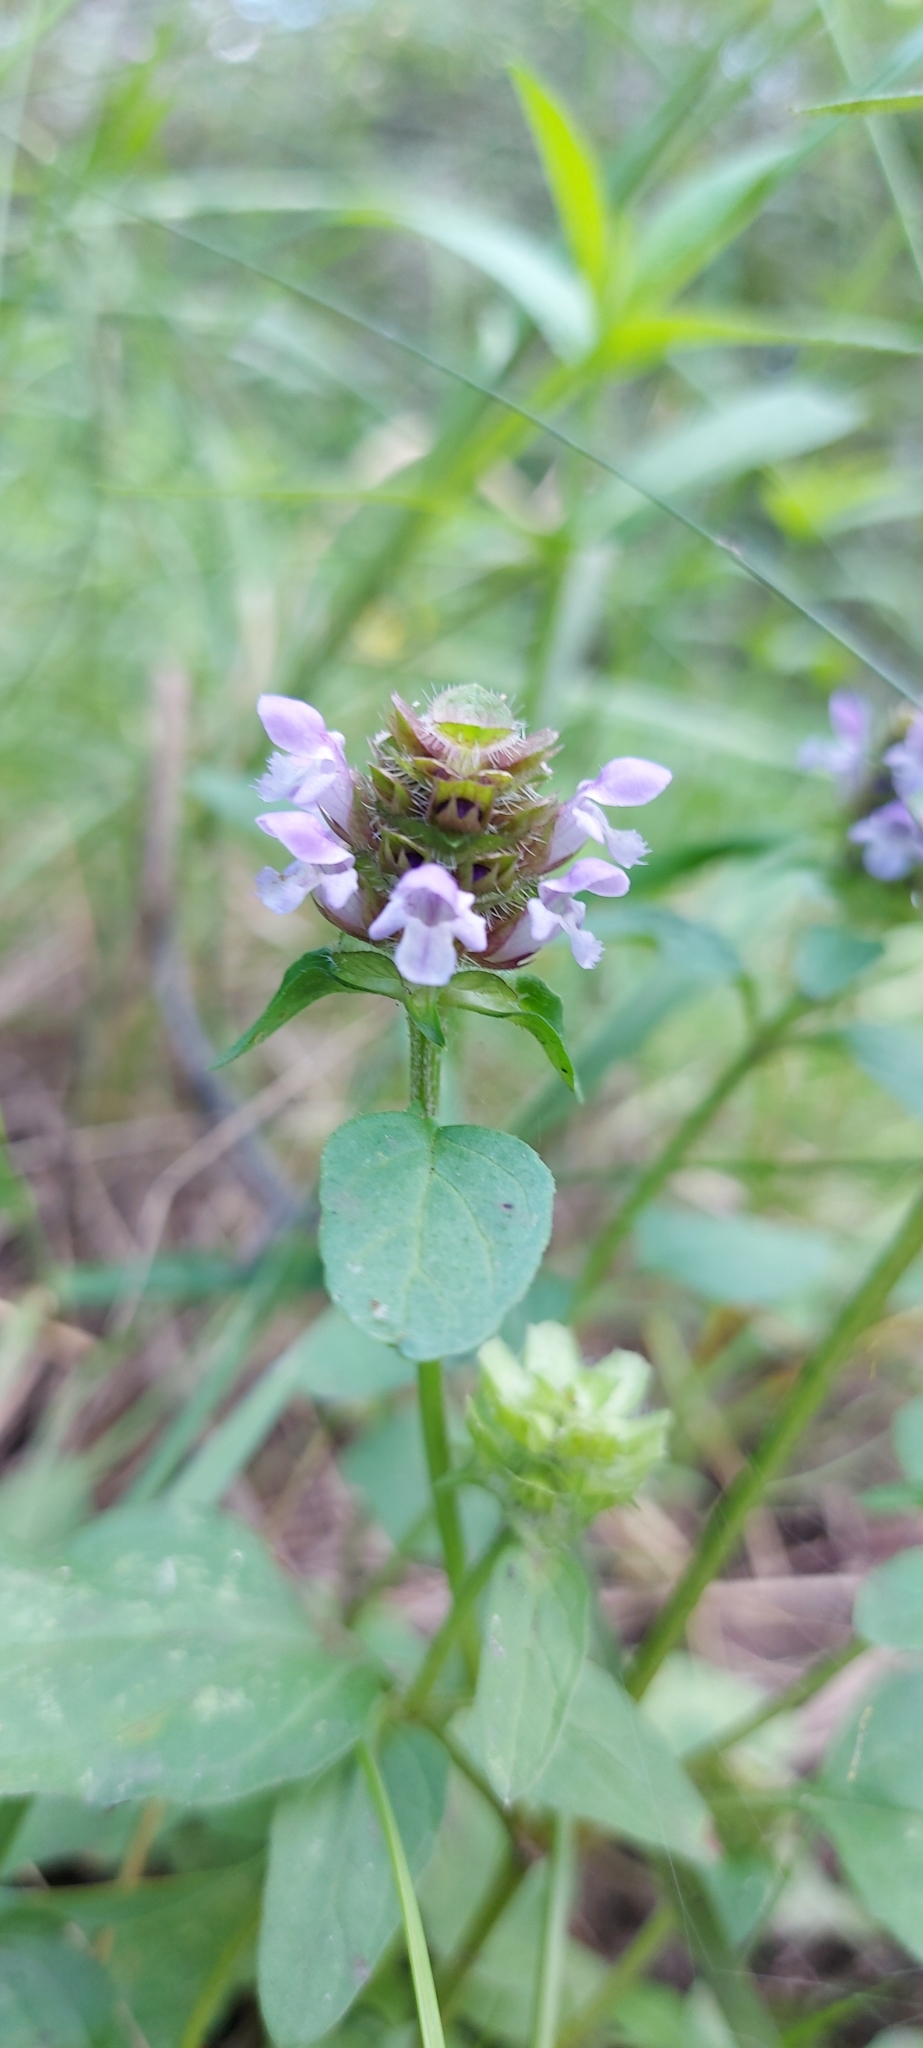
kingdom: Plantae
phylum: Tracheophyta
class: Magnoliopsida
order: Lamiales
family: Lamiaceae
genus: Prunella
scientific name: Prunella vulgaris
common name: Heal-all
